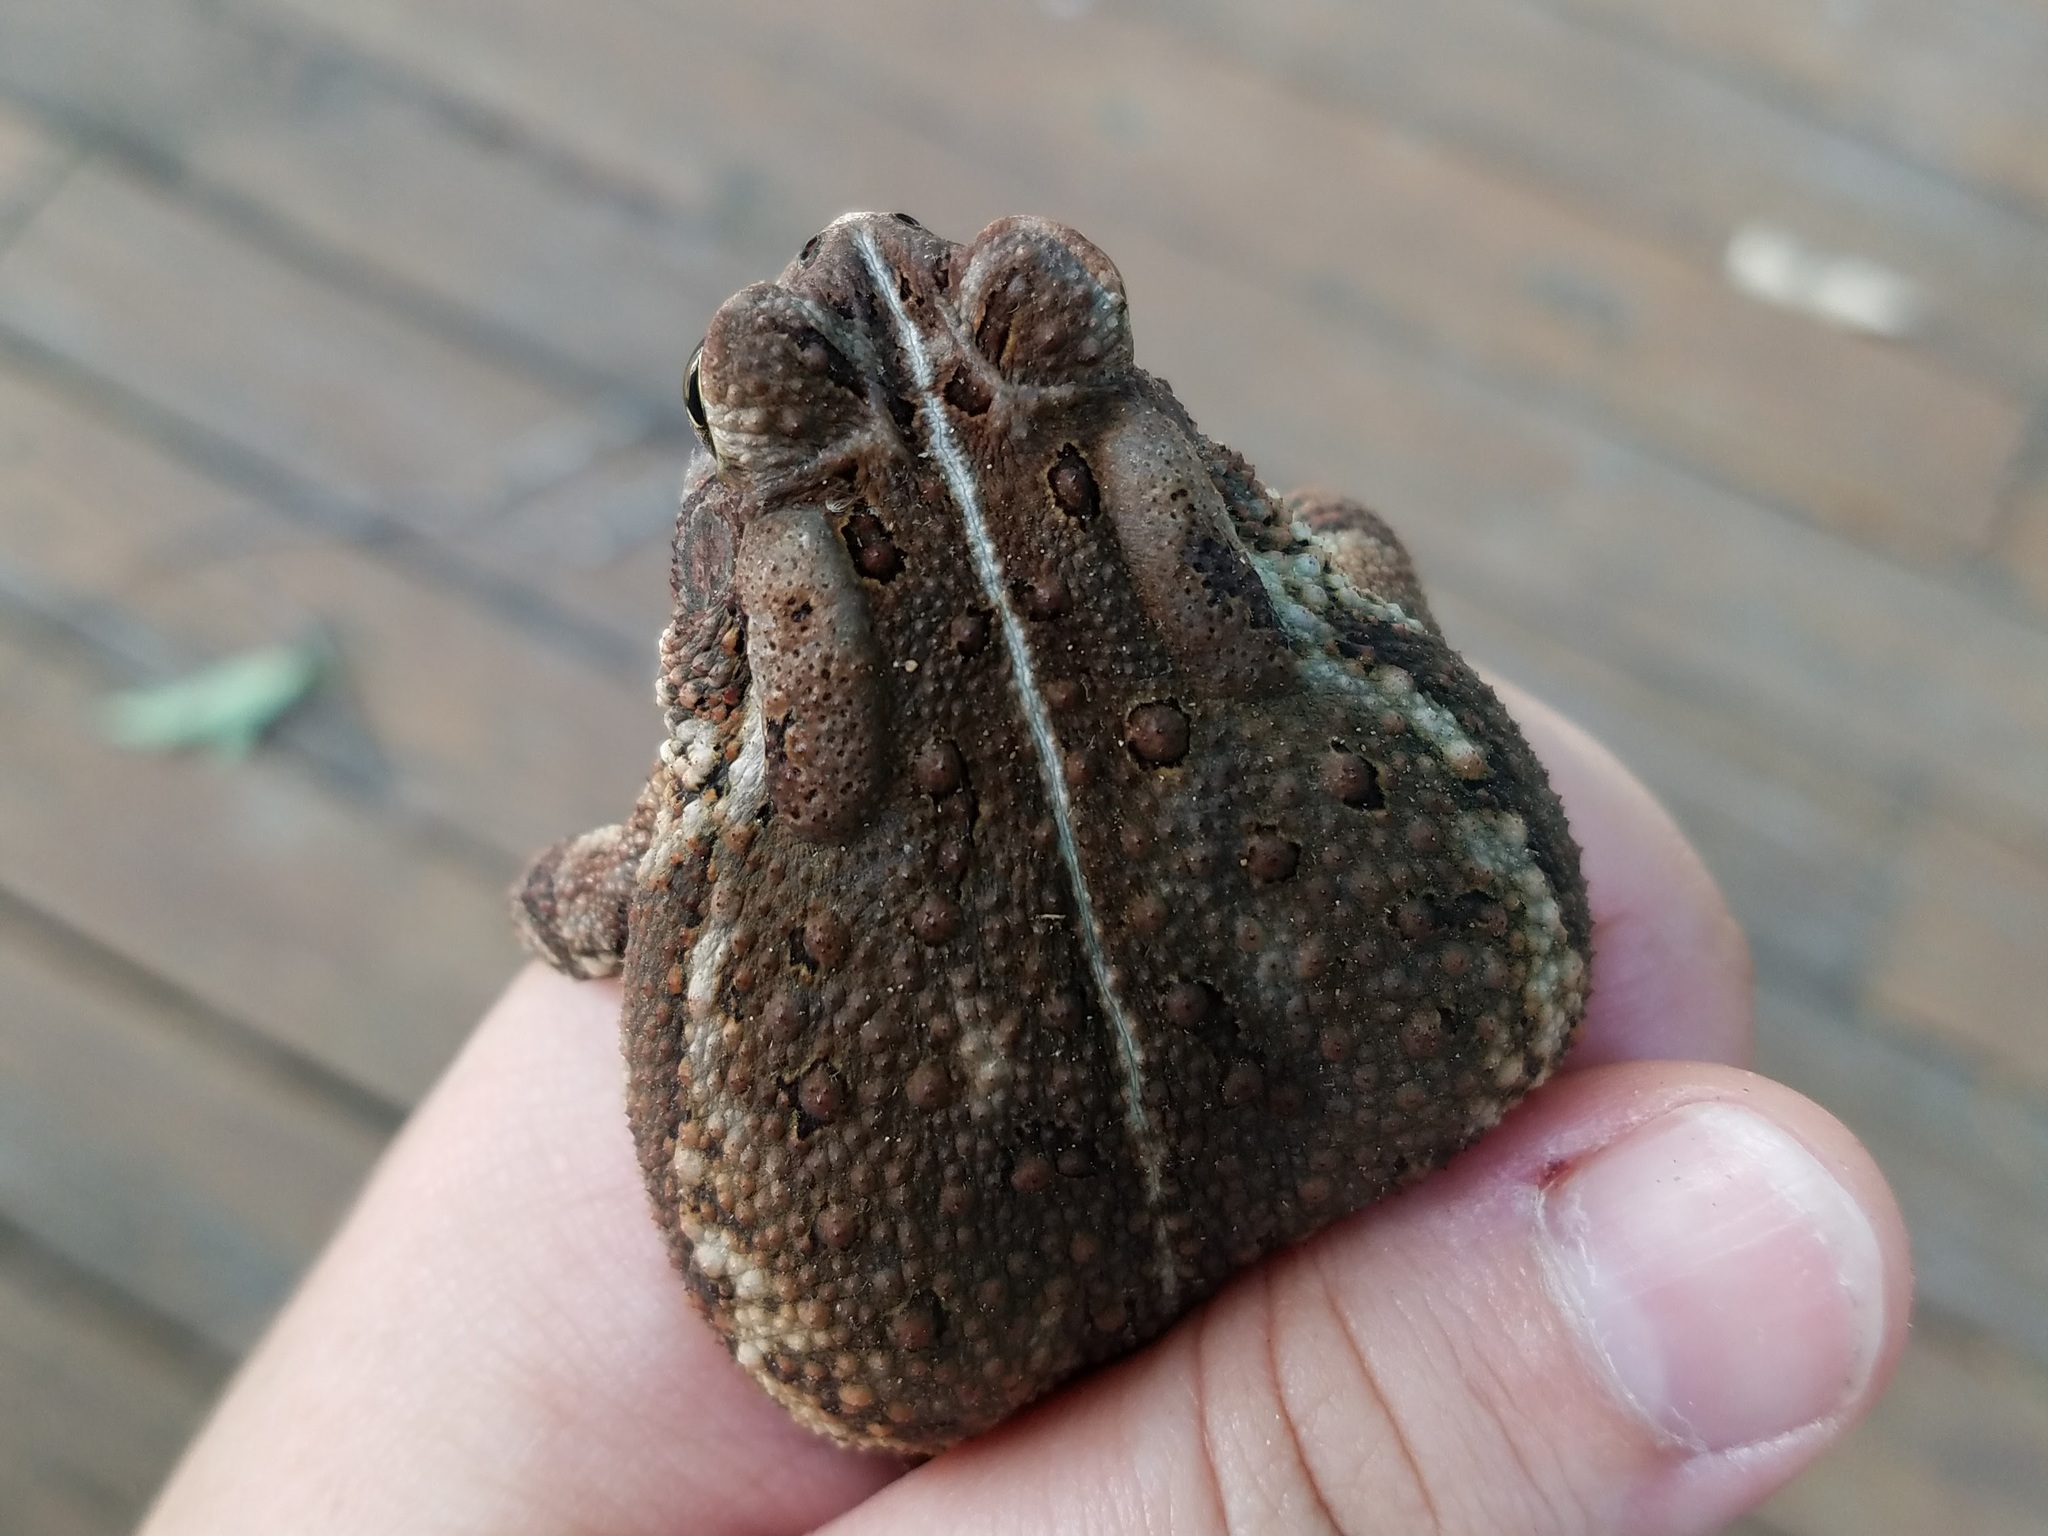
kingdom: Animalia
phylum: Chordata
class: Amphibia
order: Anura
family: Bufonidae
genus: Anaxyrus
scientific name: Anaxyrus fowleri
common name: Fowler's toad
